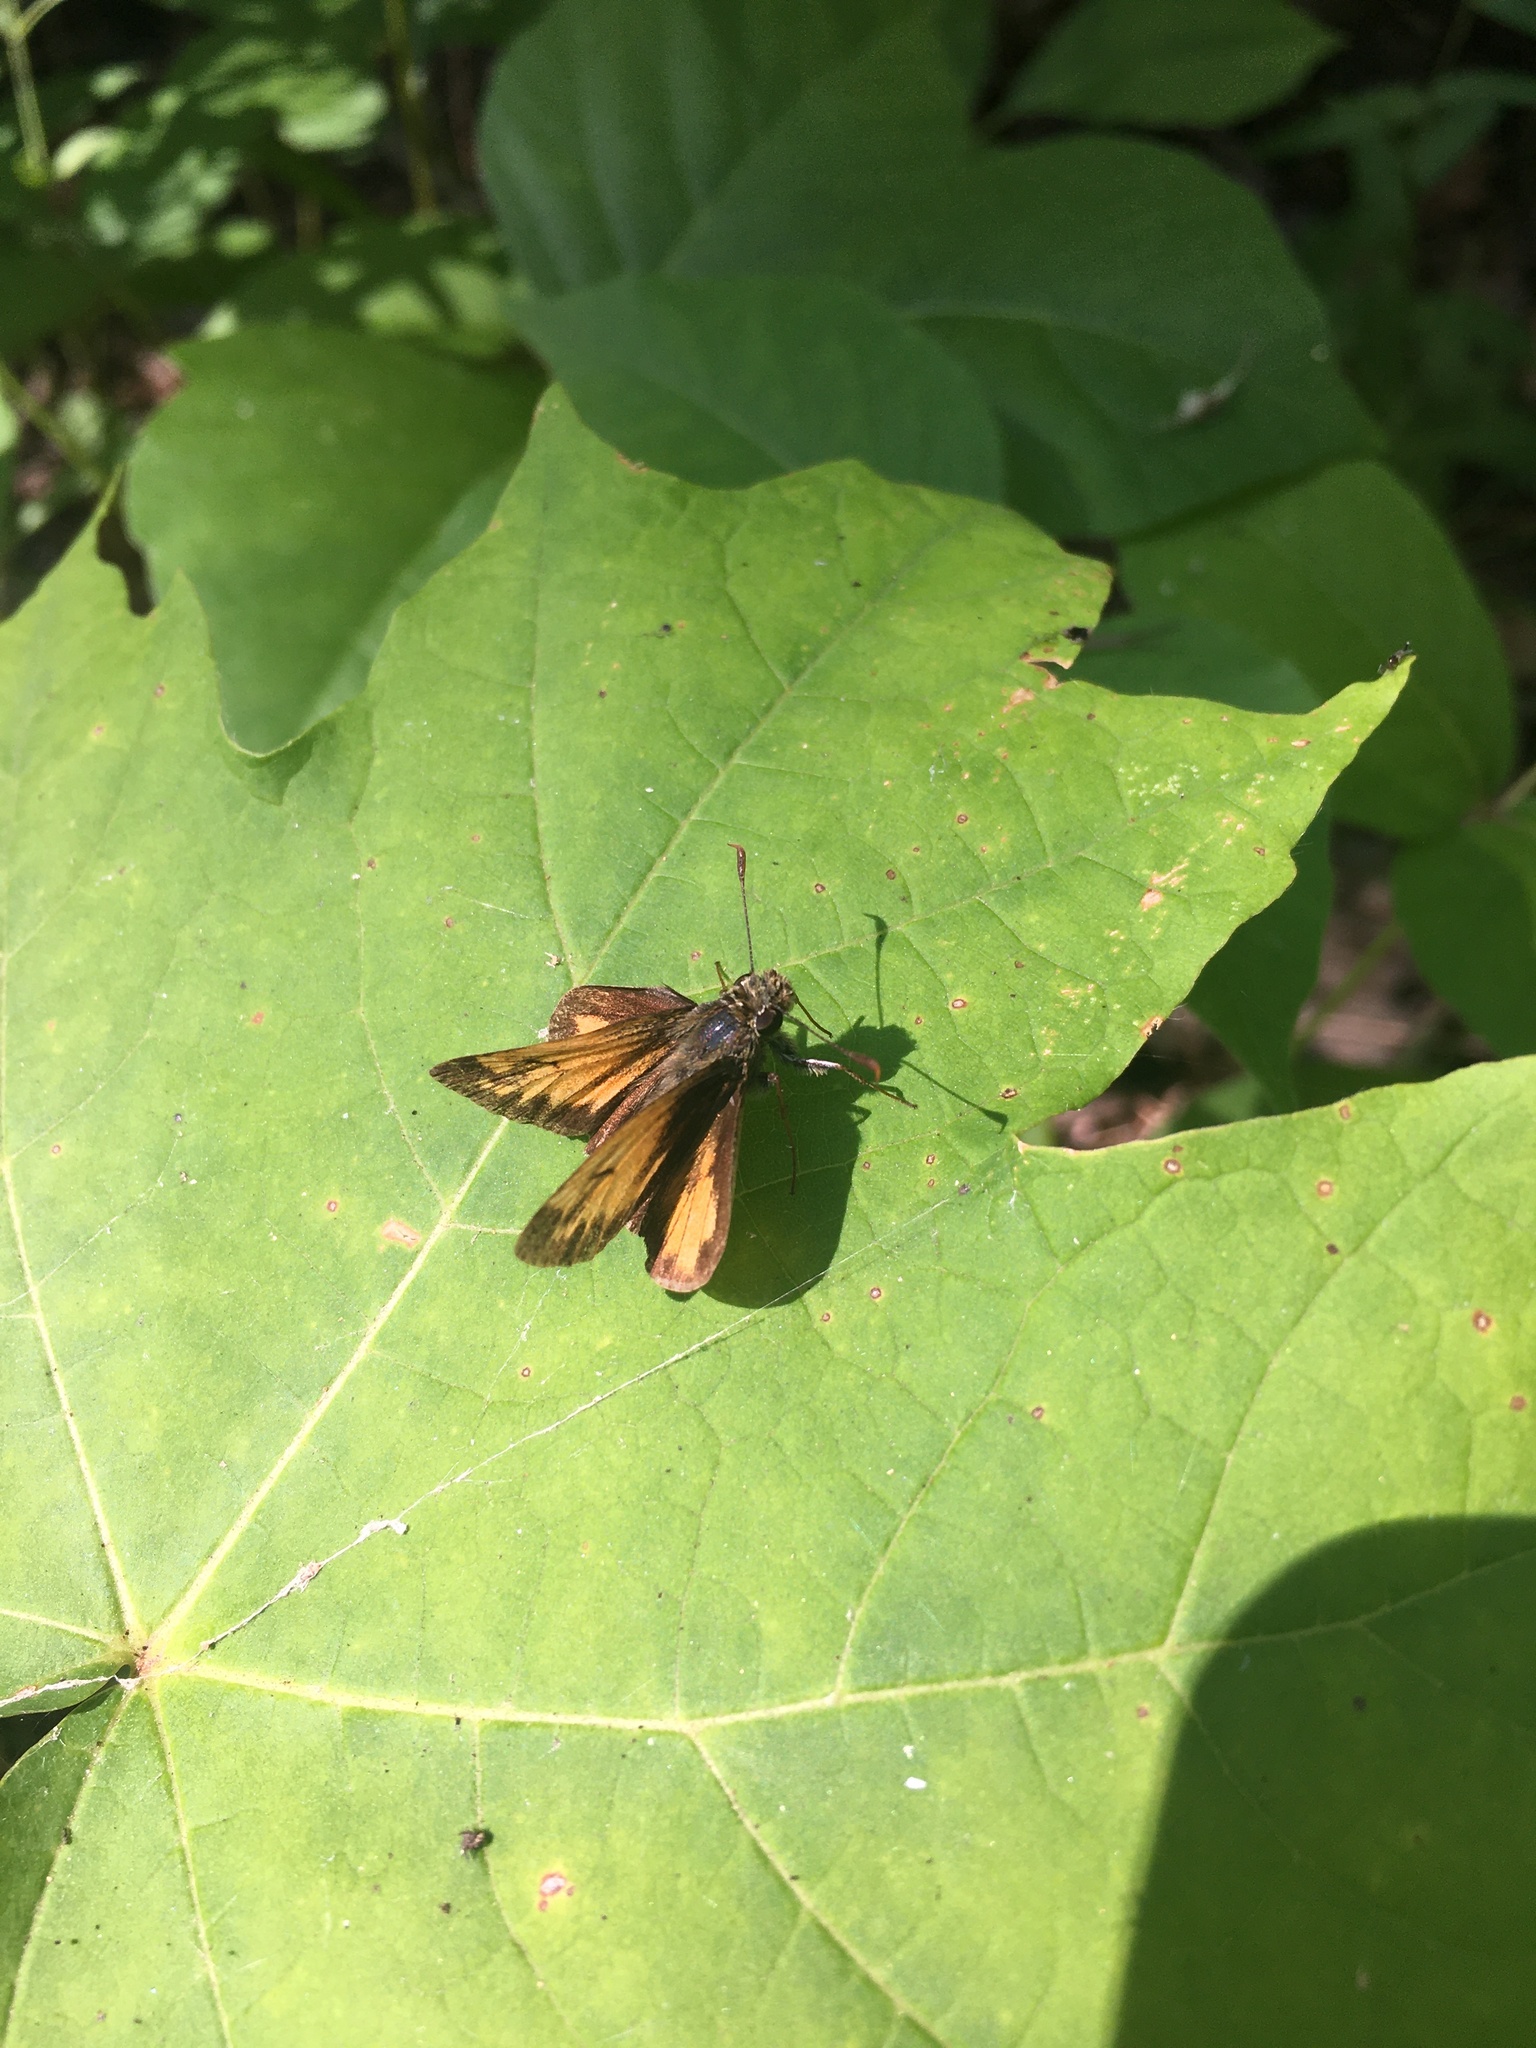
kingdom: Animalia
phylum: Arthropoda
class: Insecta
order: Lepidoptera
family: Hesperiidae
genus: Lon
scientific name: Lon hobomok
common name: Hobomok skipper
